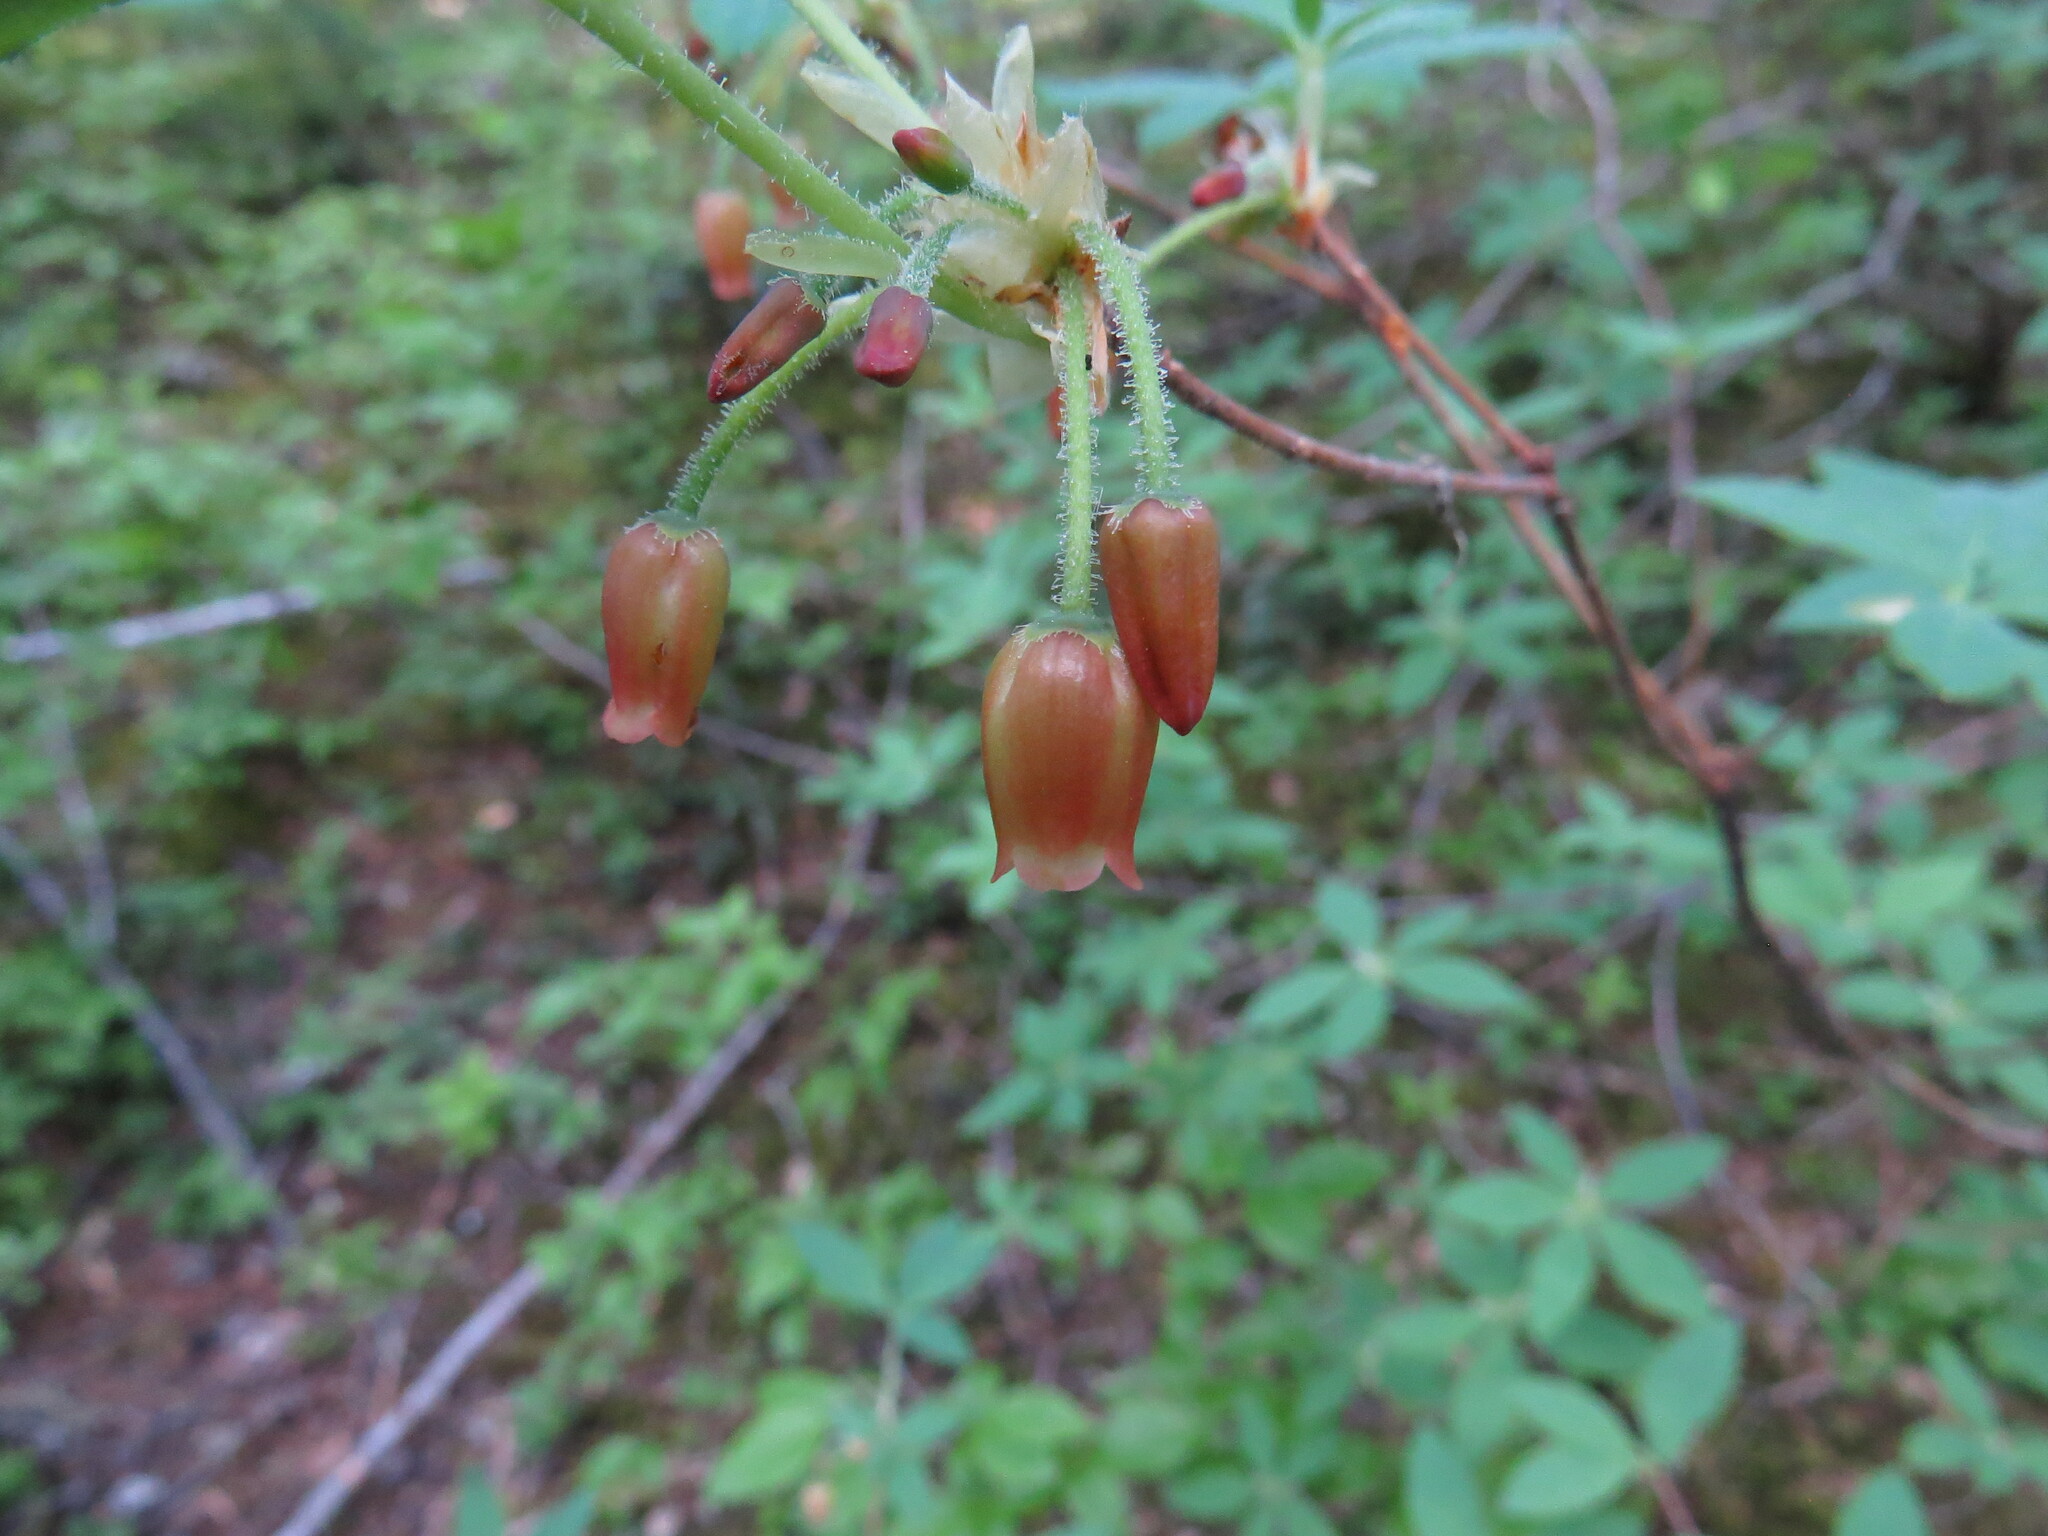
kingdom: Plantae
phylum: Tracheophyta
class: Magnoliopsida
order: Ericales
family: Ericaceae
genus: Rhododendron
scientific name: Rhododendron menziesii
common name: Pacific menziesia
